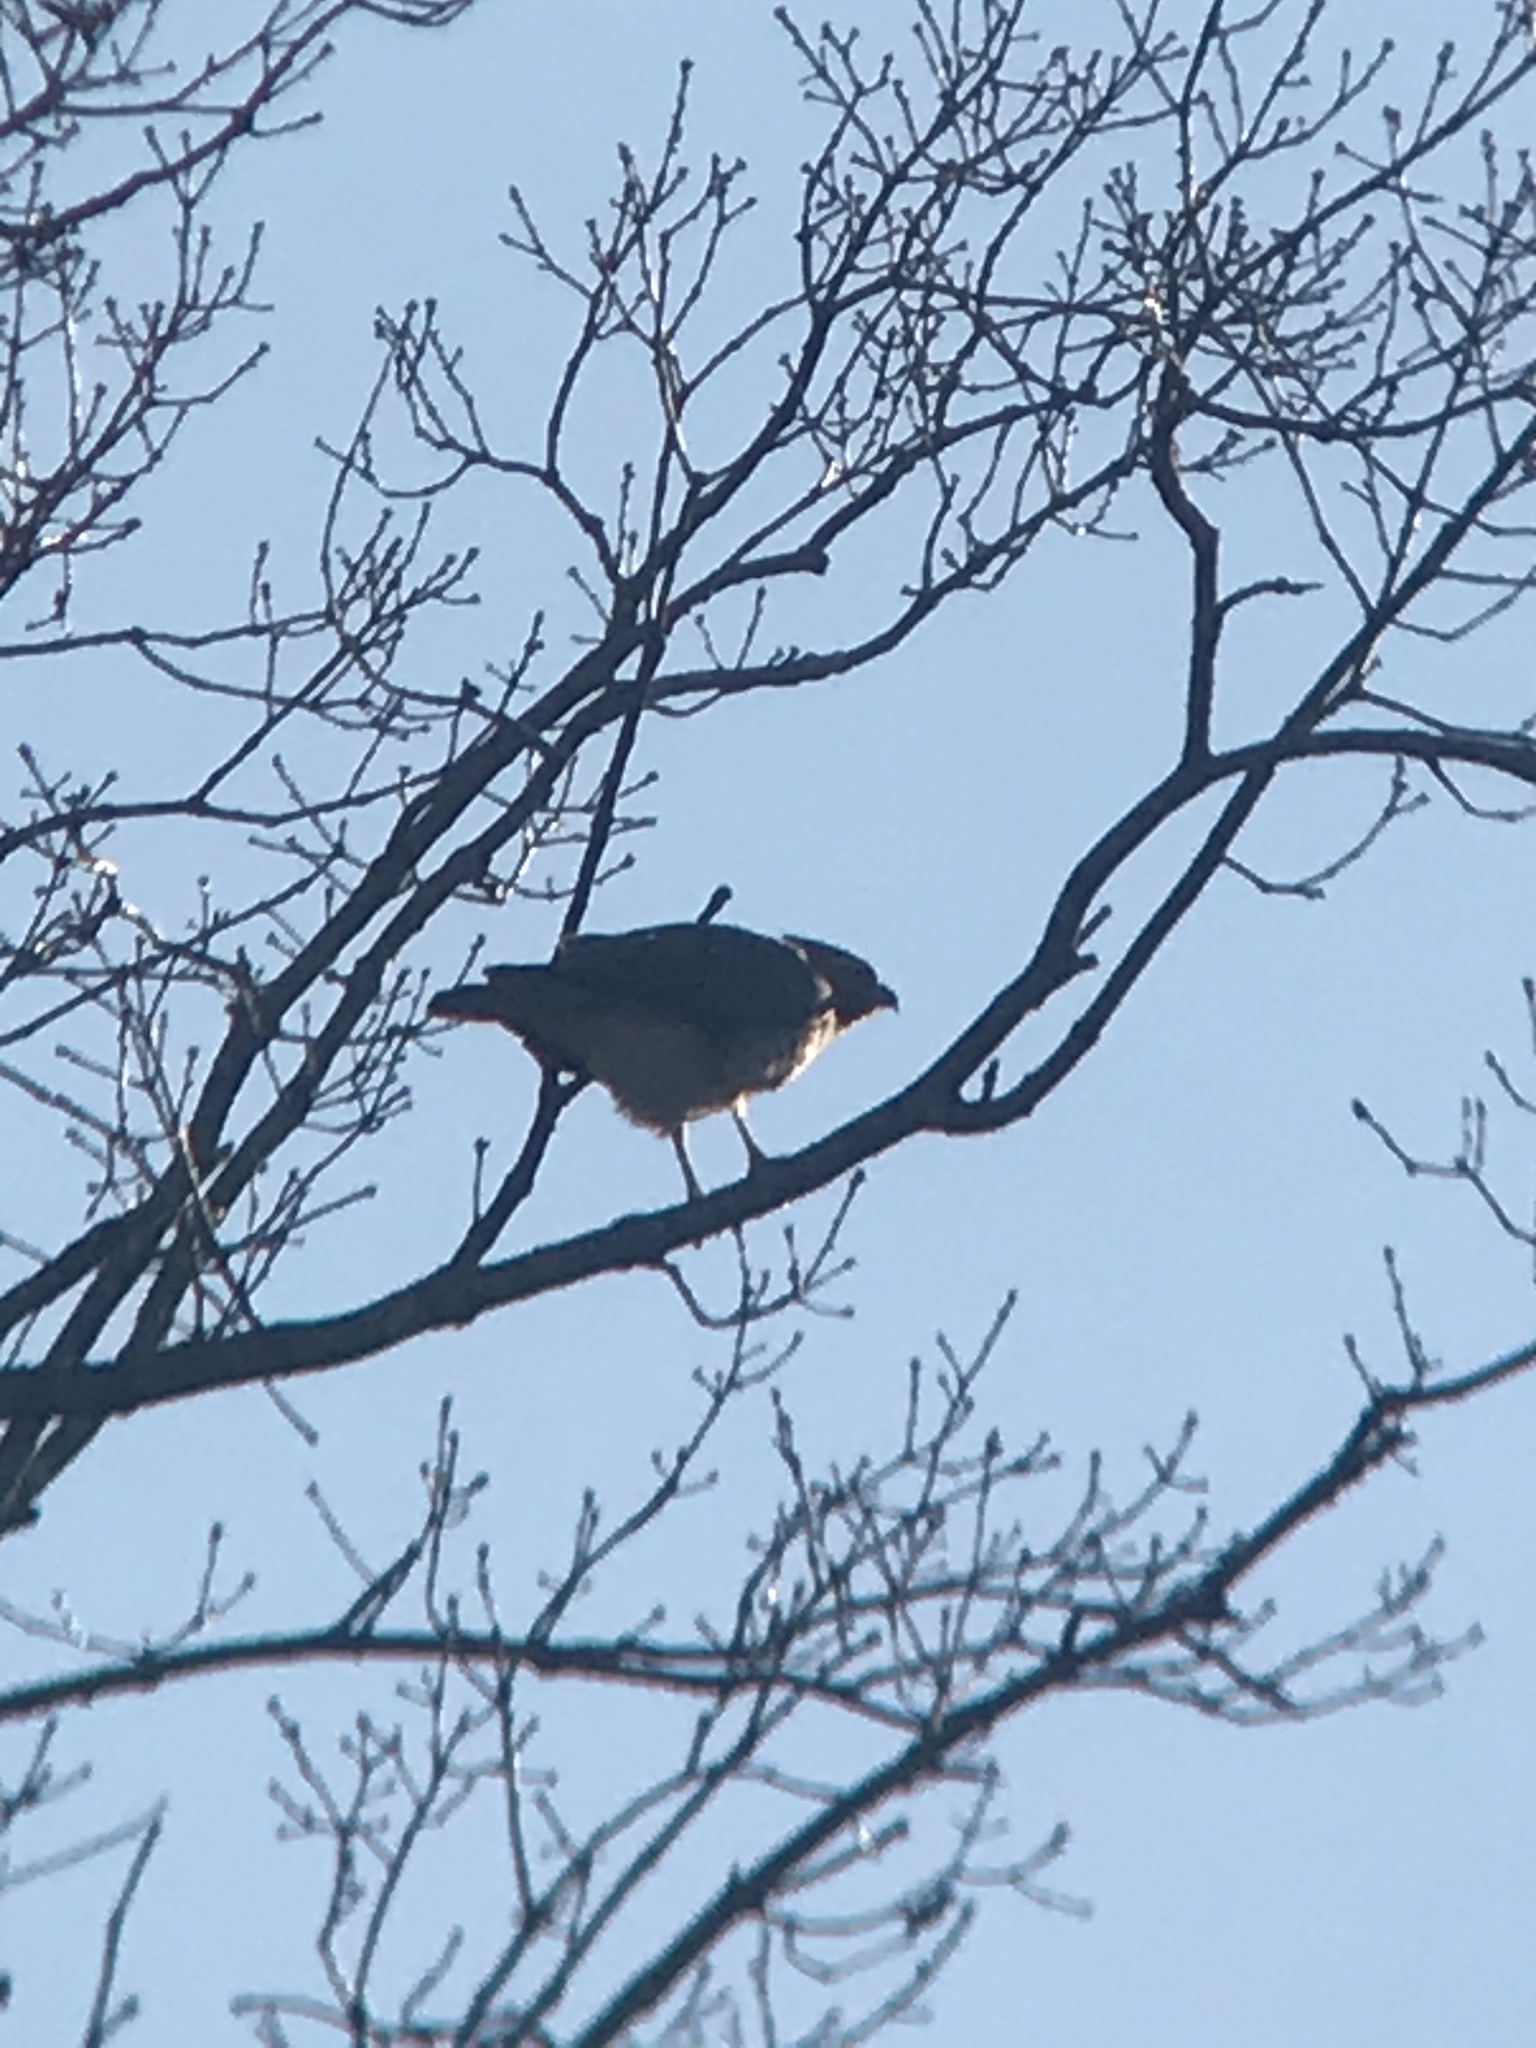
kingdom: Animalia
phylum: Chordata
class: Aves
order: Accipitriformes
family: Accipitridae
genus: Buteo
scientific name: Buteo lineatus
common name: Red-shouldered hawk
